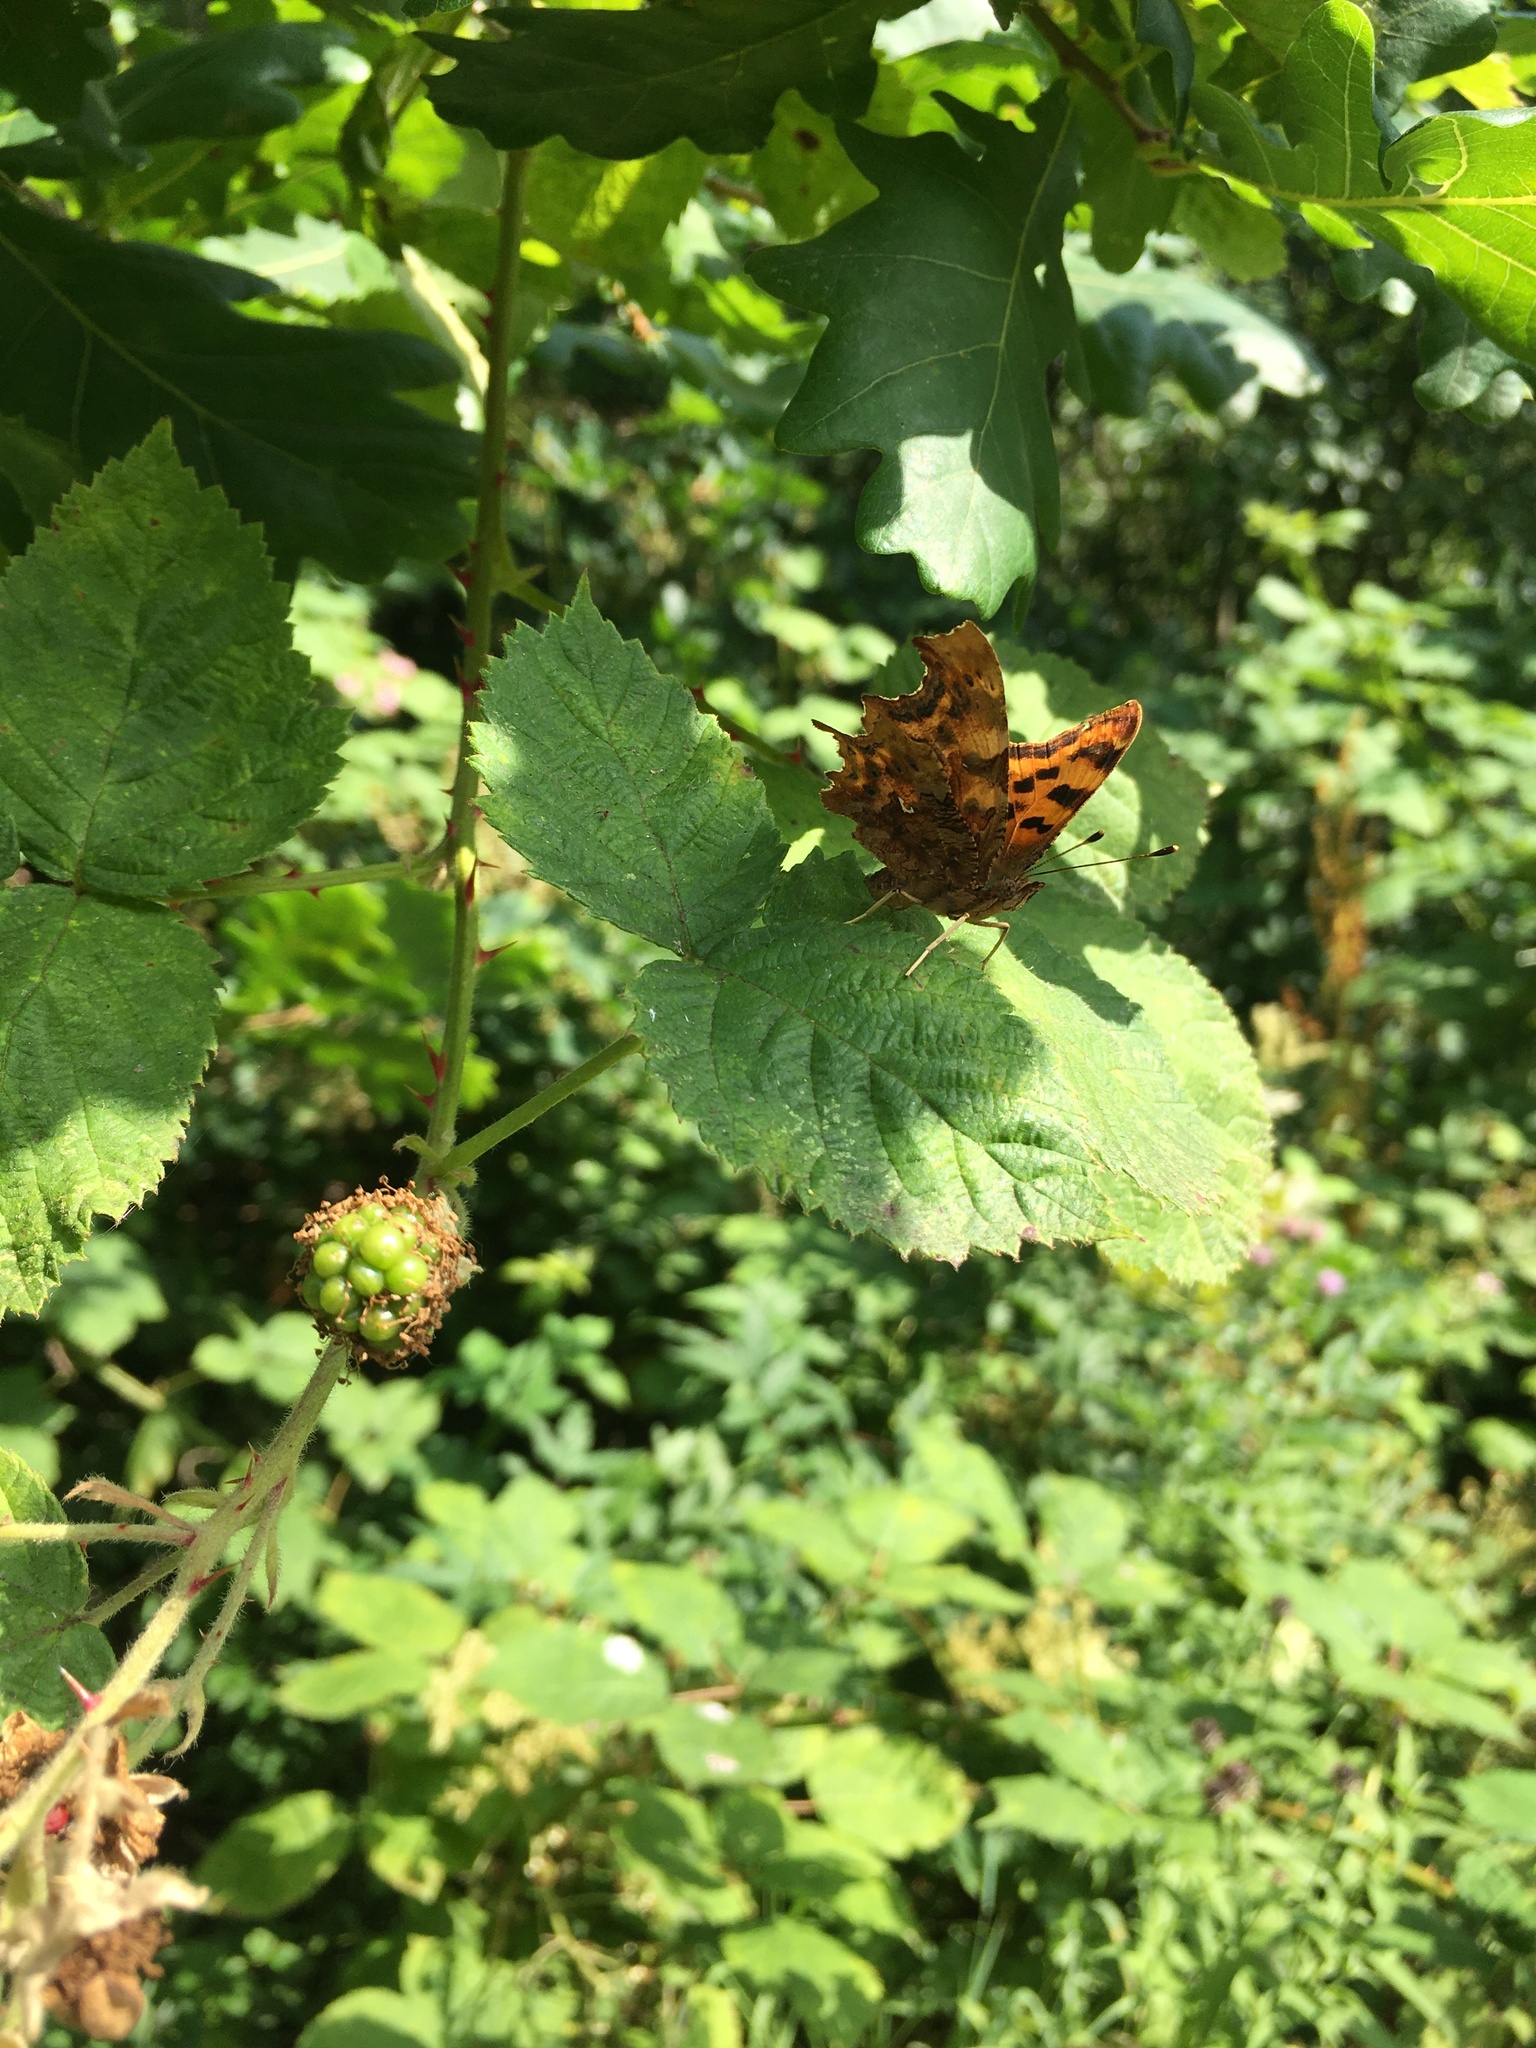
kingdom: Animalia
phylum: Arthropoda
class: Insecta
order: Lepidoptera
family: Nymphalidae
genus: Polygonia
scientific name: Polygonia c-album
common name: Comma
